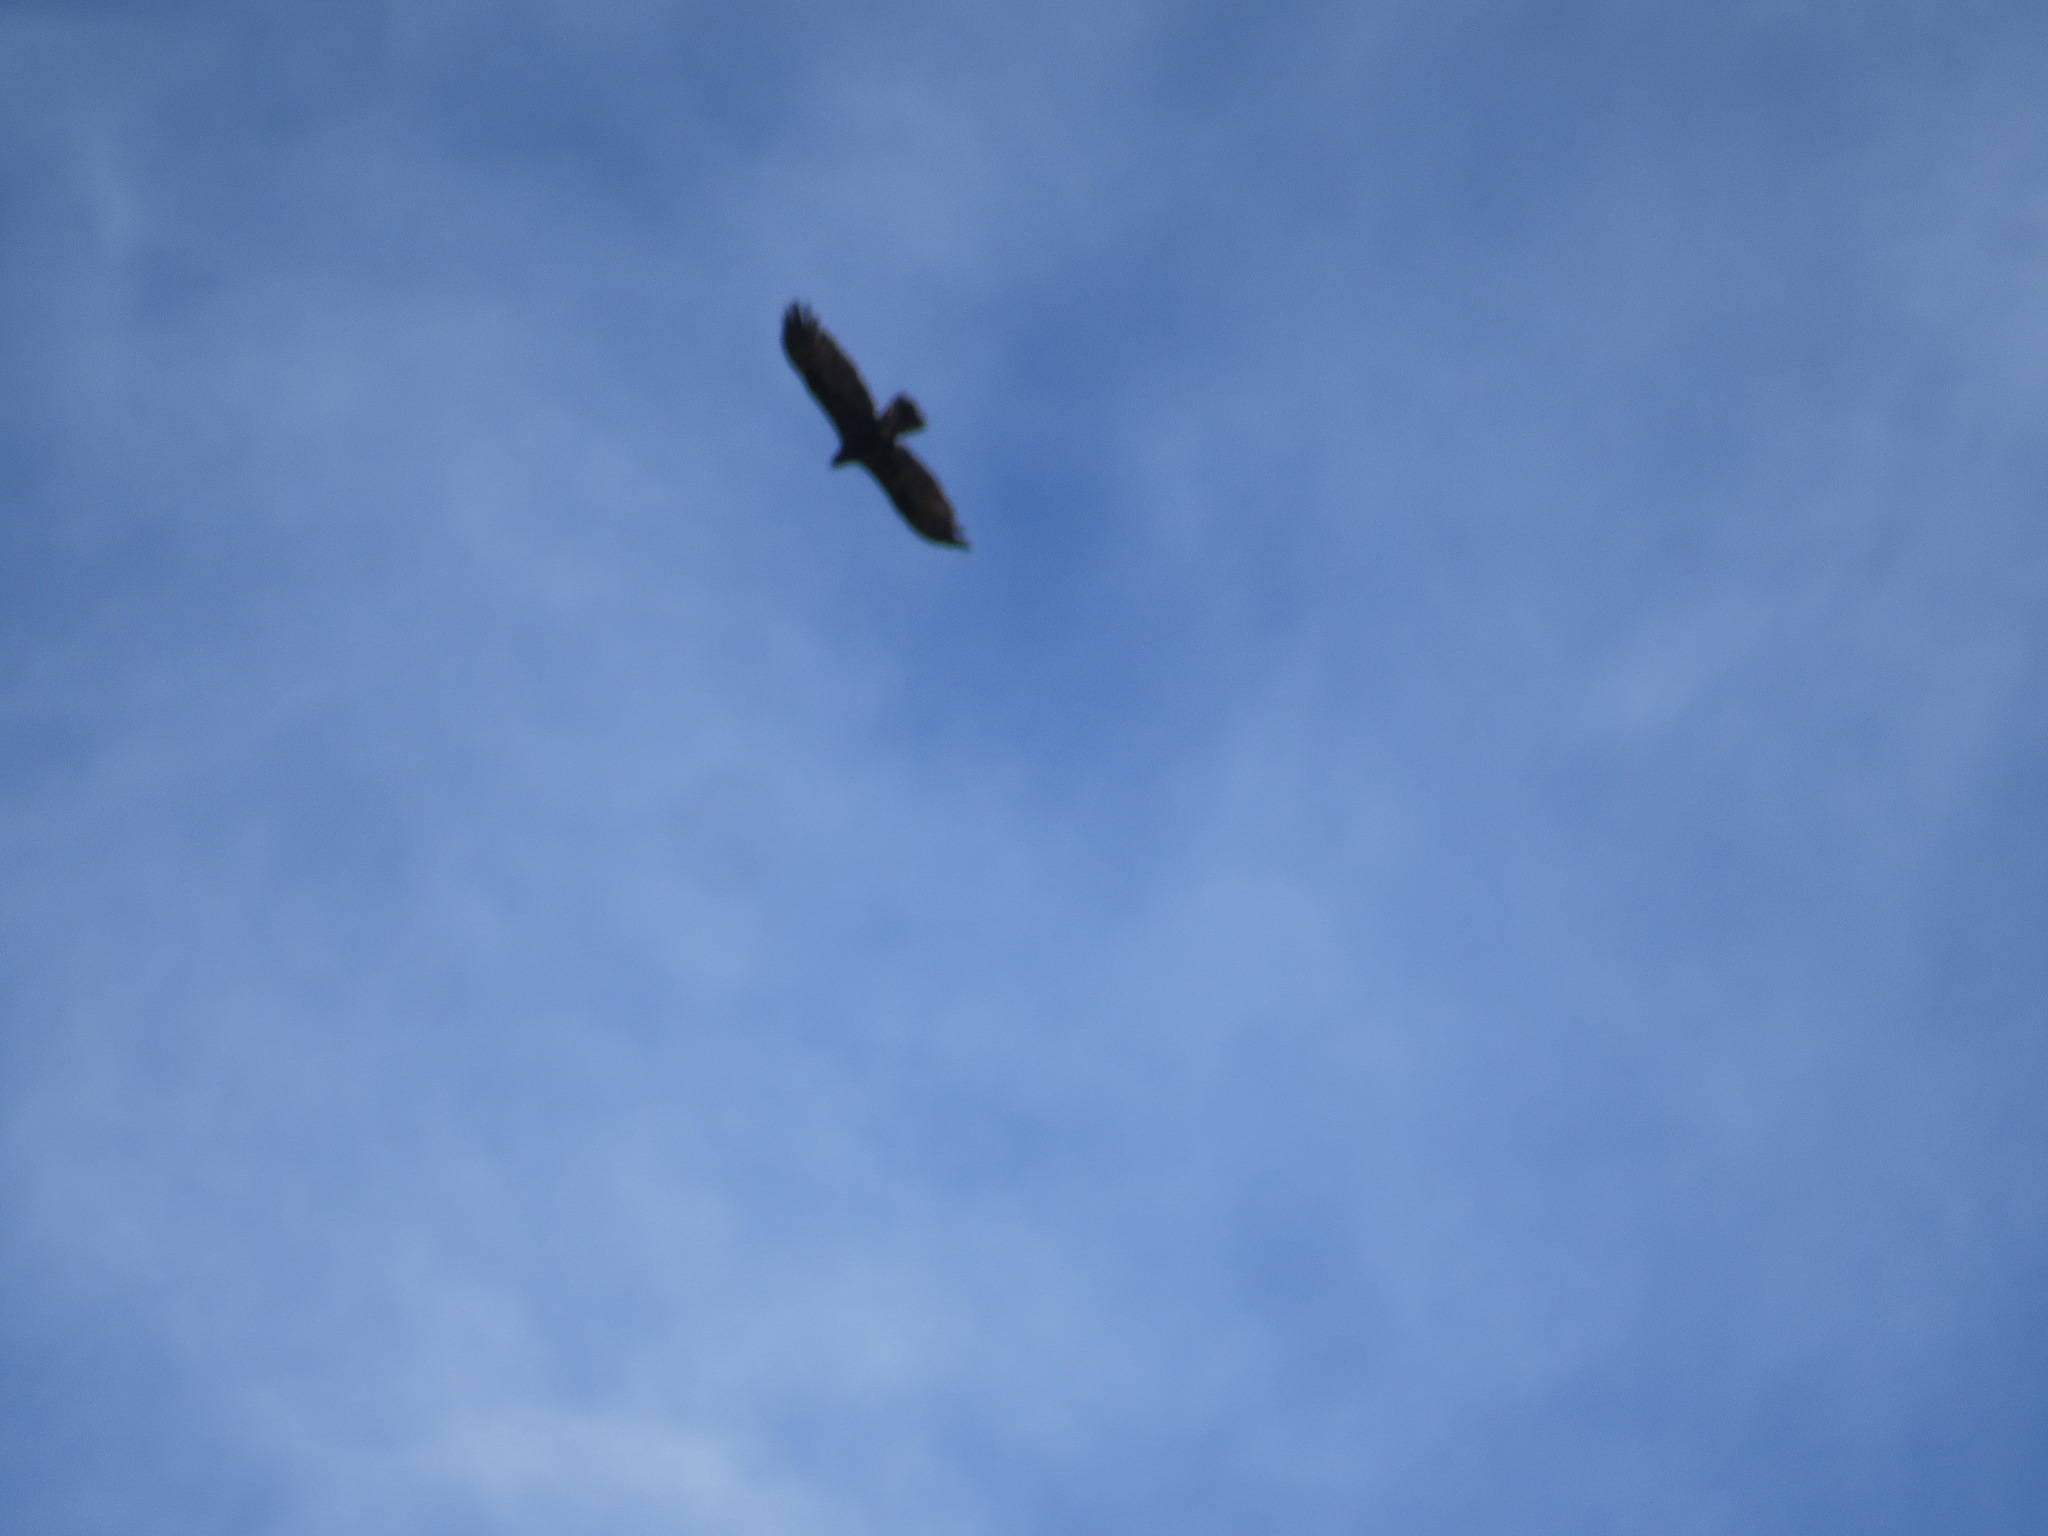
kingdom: Animalia
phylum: Chordata
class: Aves
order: Accipitriformes
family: Accipitridae
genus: Aquila
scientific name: Aquila chrysaetos
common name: Golden eagle
